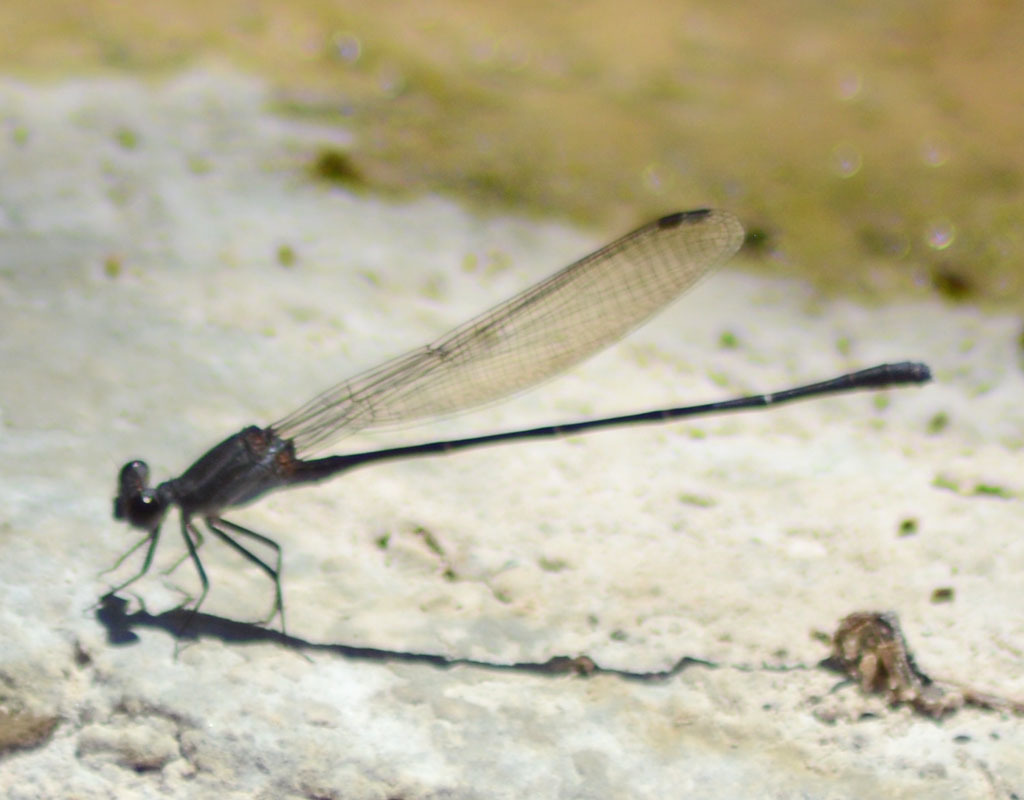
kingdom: Animalia
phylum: Arthropoda
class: Insecta
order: Odonata
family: Coenagrionidae
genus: Argia
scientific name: Argia tezpi
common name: Tezpi dancer
